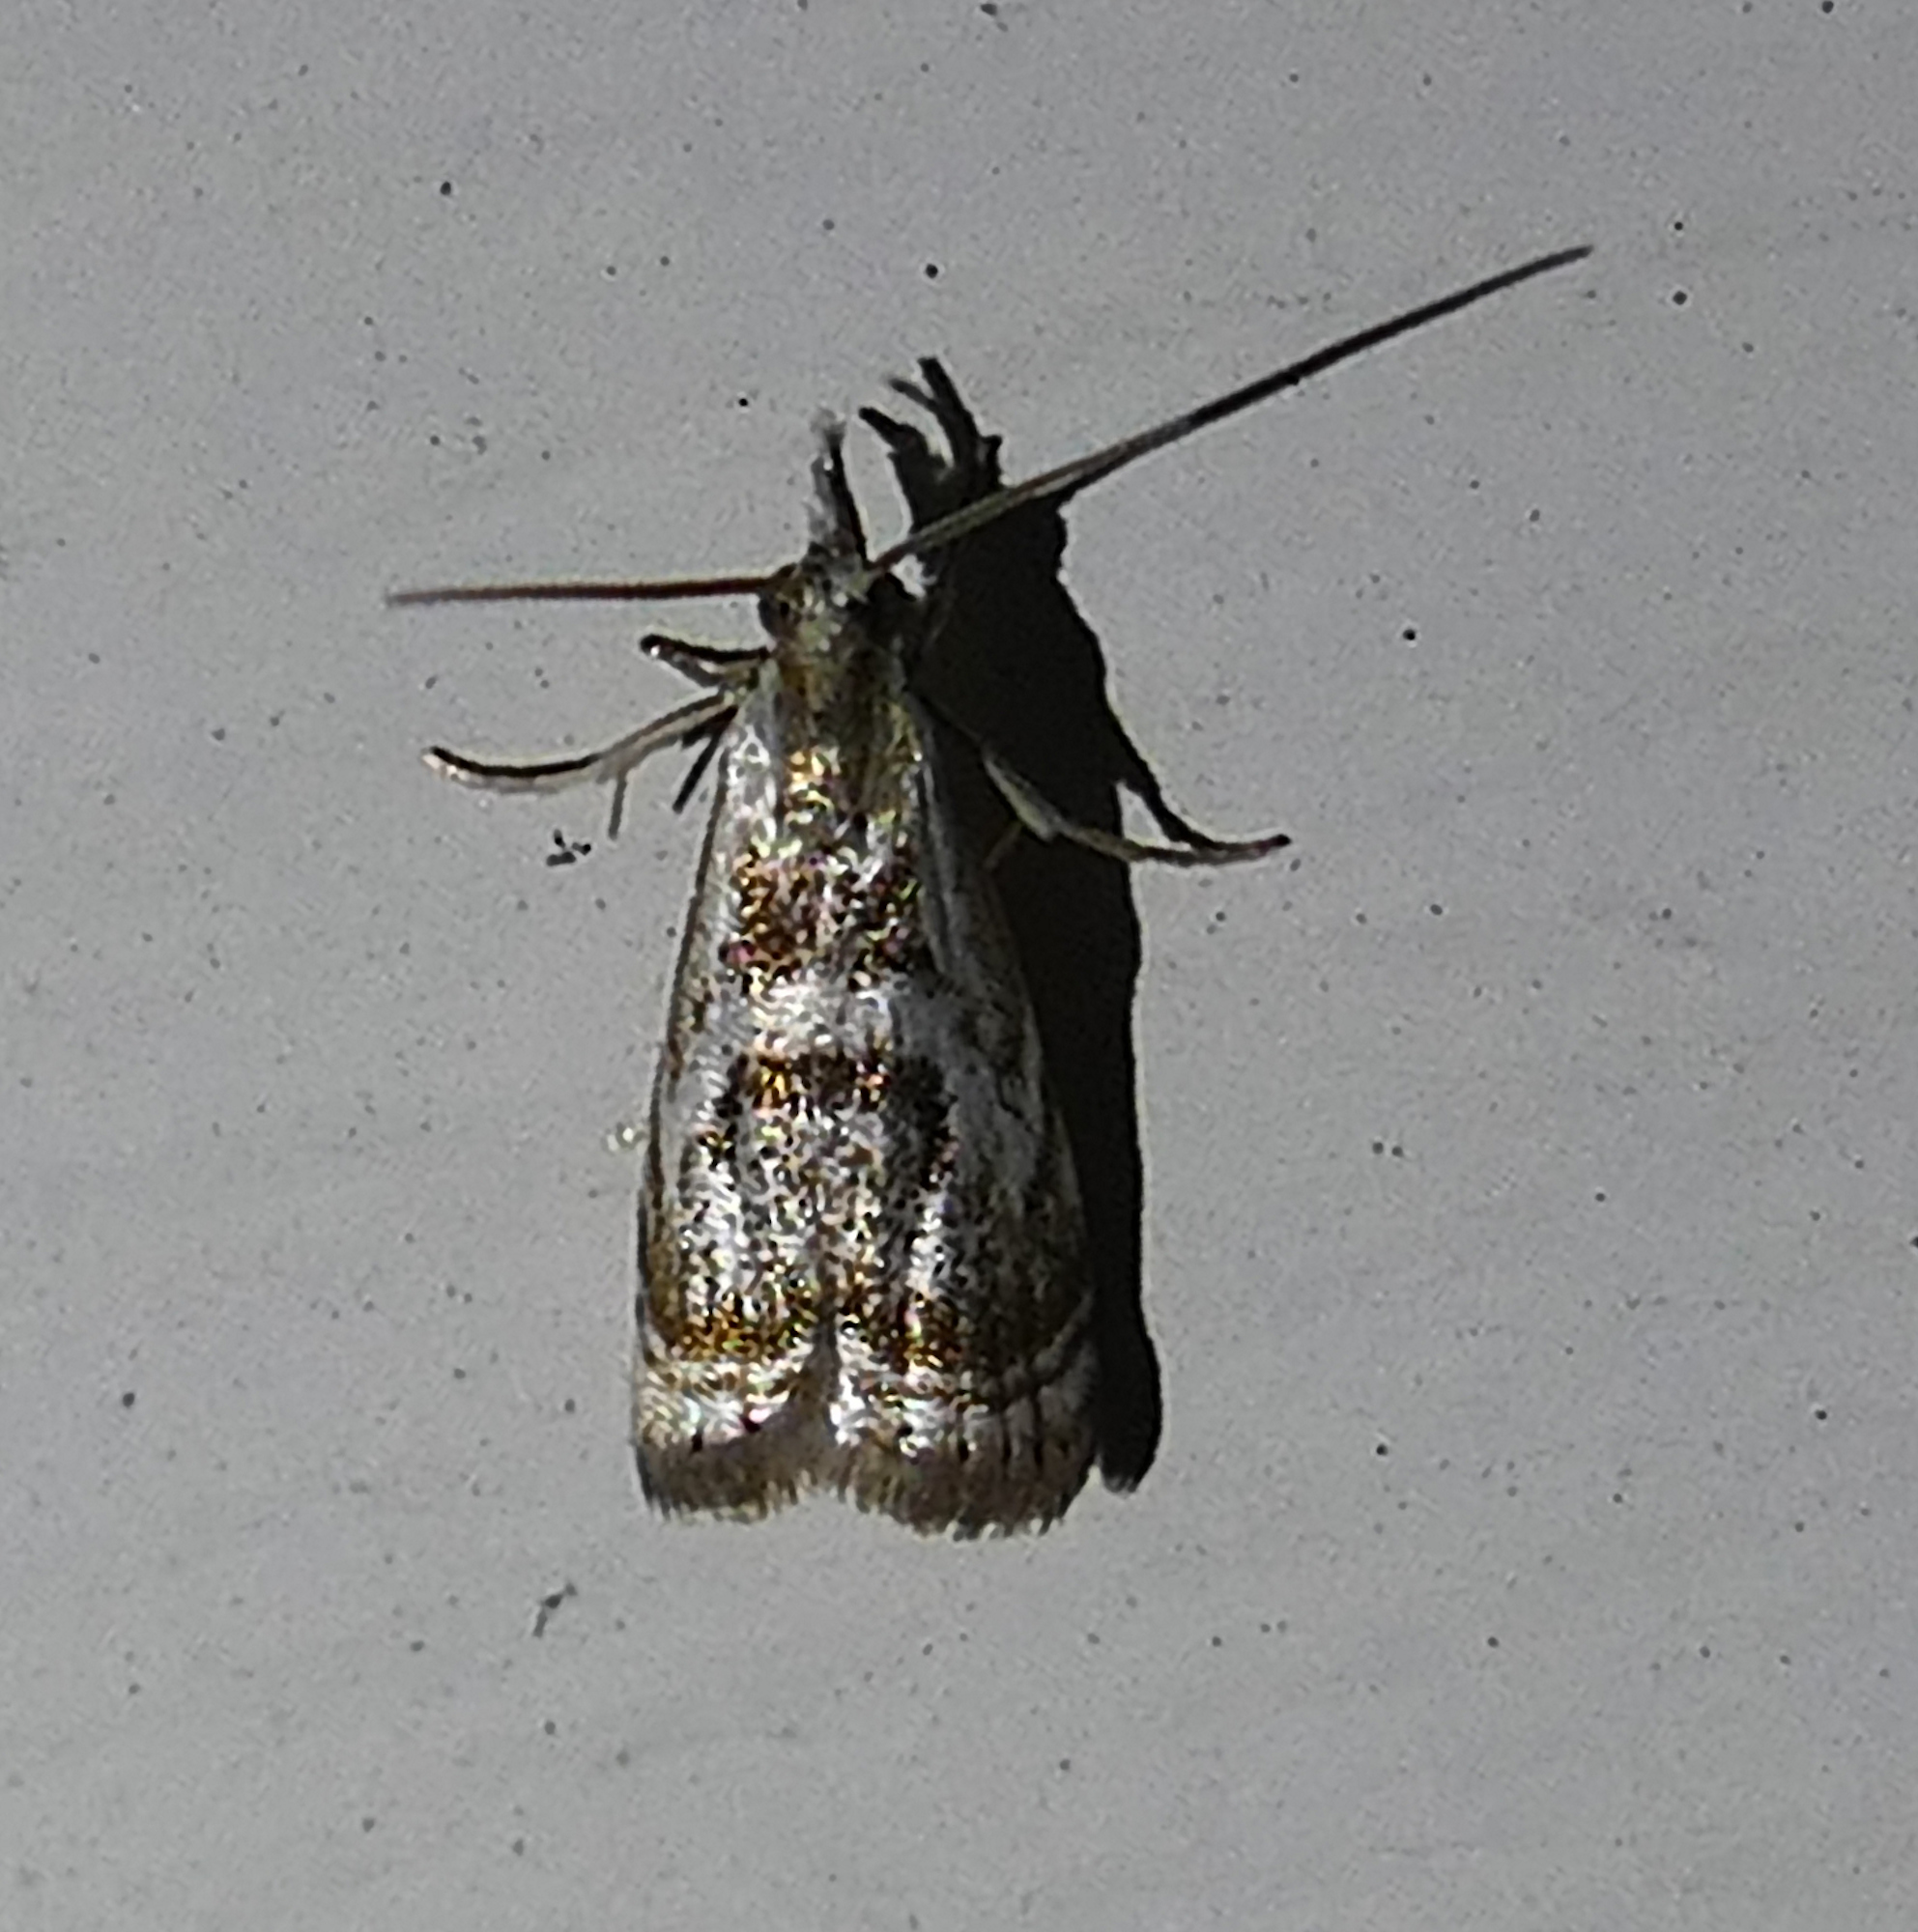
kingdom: Animalia
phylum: Arthropoda
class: Insecta
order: Lepidoptera
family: Crambidae
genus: Microcrambus
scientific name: Microcrambus elegans
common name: Elegant grass-veneer
